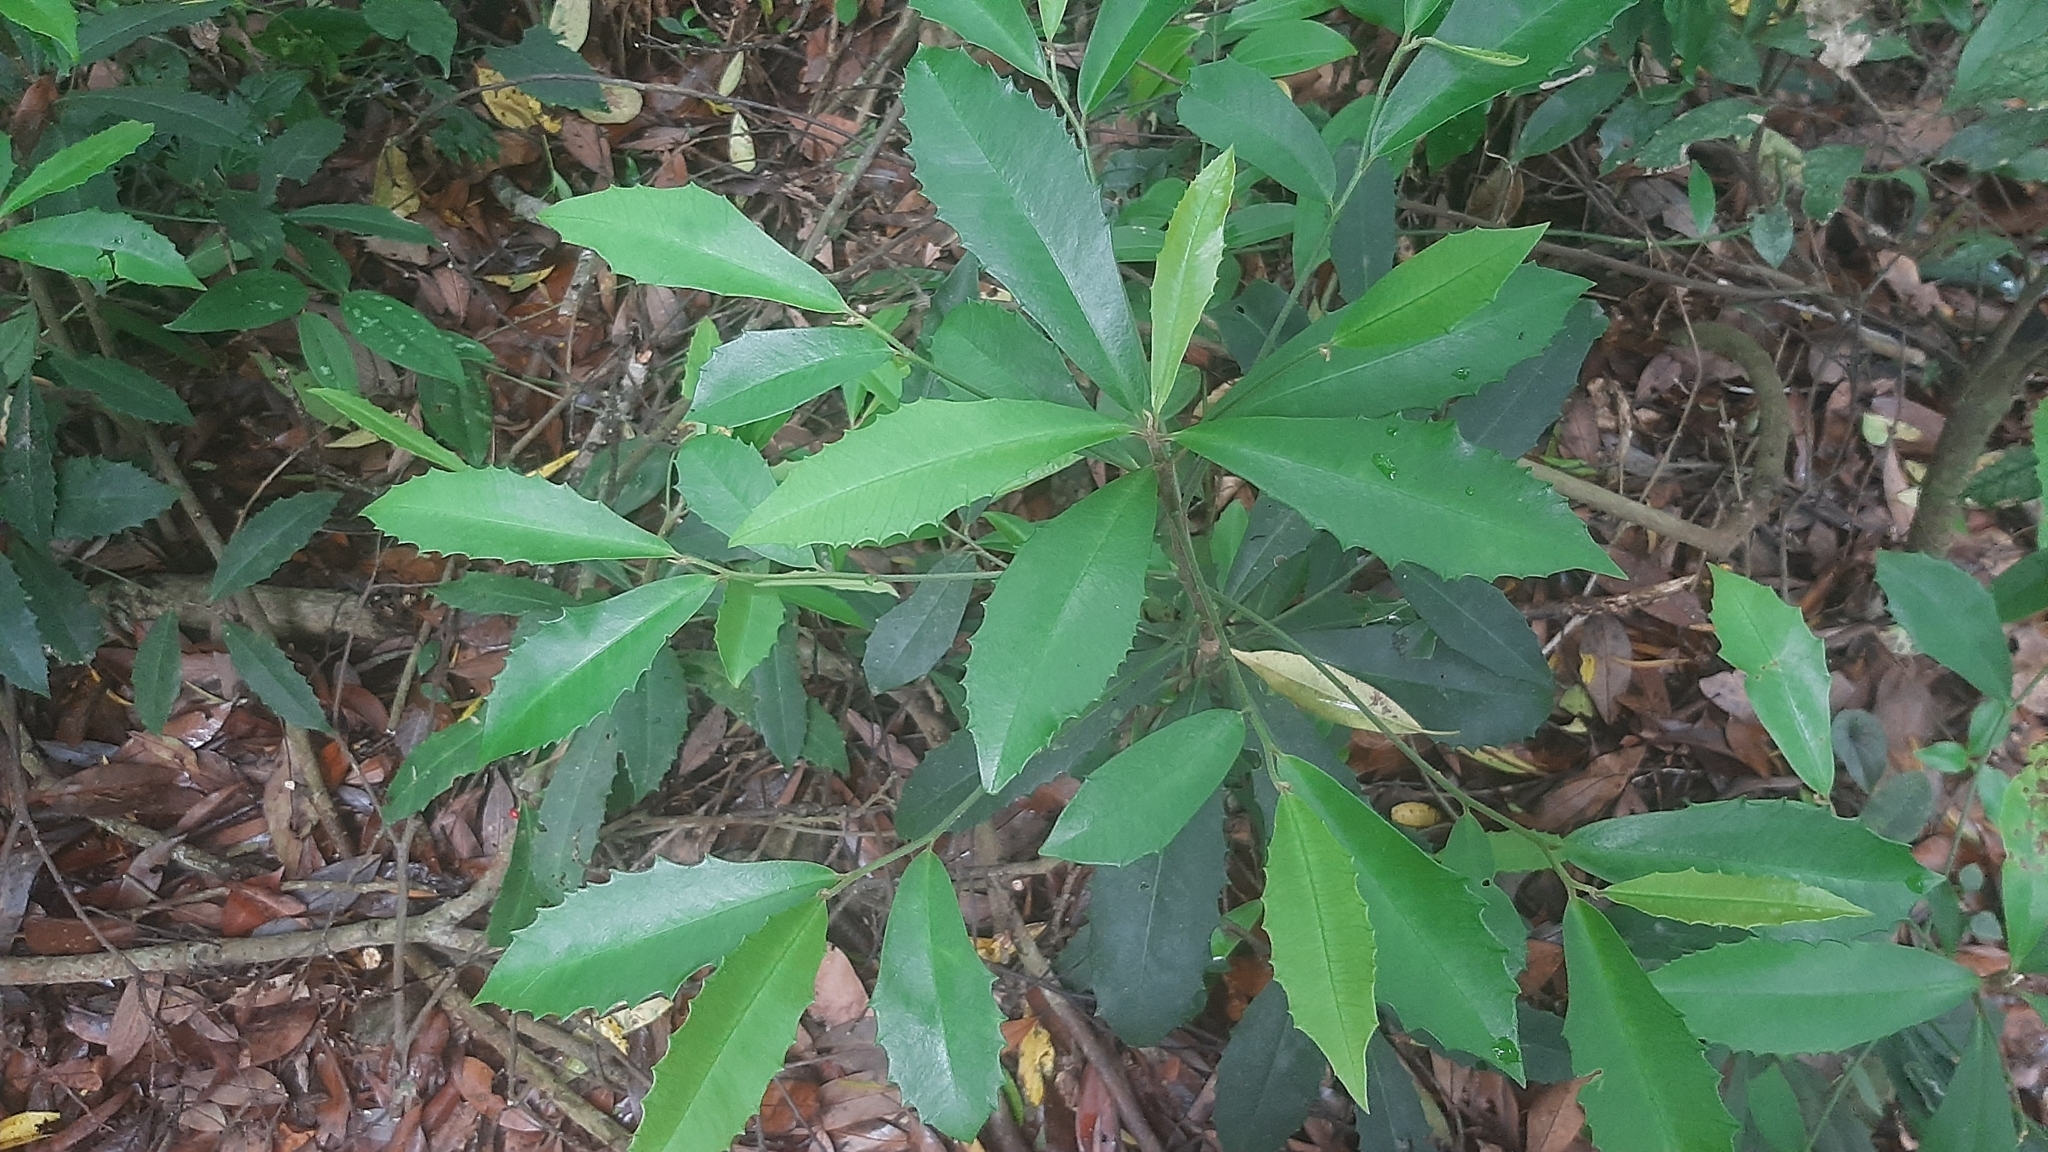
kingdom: Plantae
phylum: Tracheophyta
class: Magnoliopsida
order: Ericales
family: Primulaceae
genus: Ardisia
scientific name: Ardisia cornudentata
